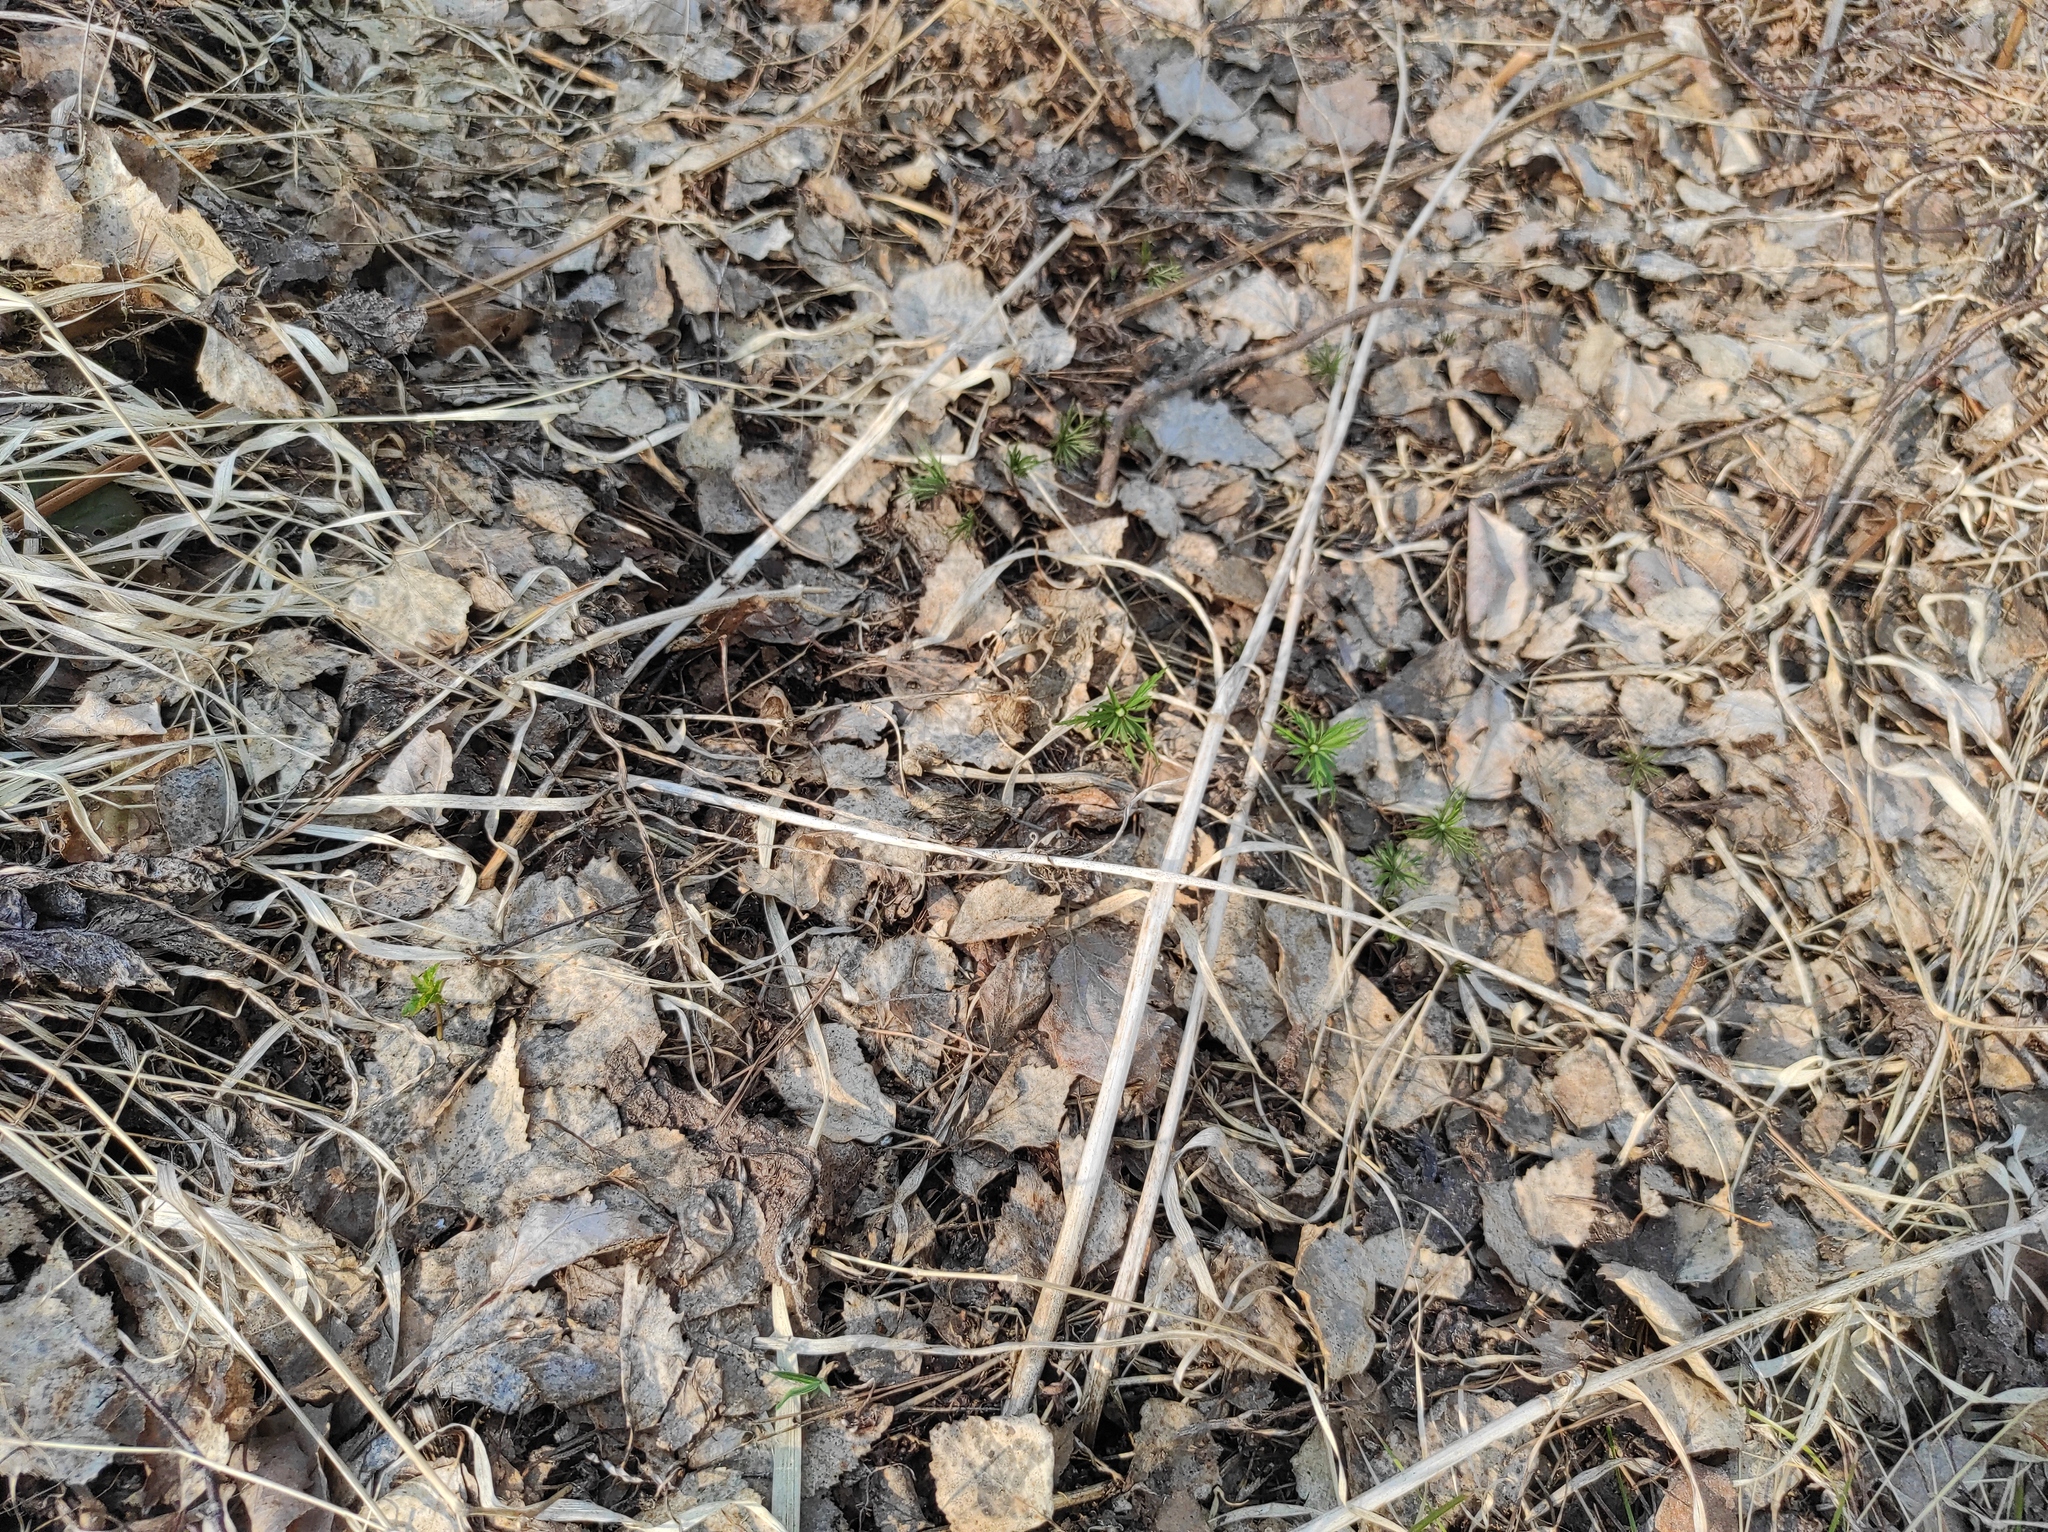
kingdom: Plantae
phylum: Tracheophyta
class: Magnoliopsida
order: Ranunculales
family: Ranunculaceae
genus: Anemone
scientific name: Anemone caerulea
